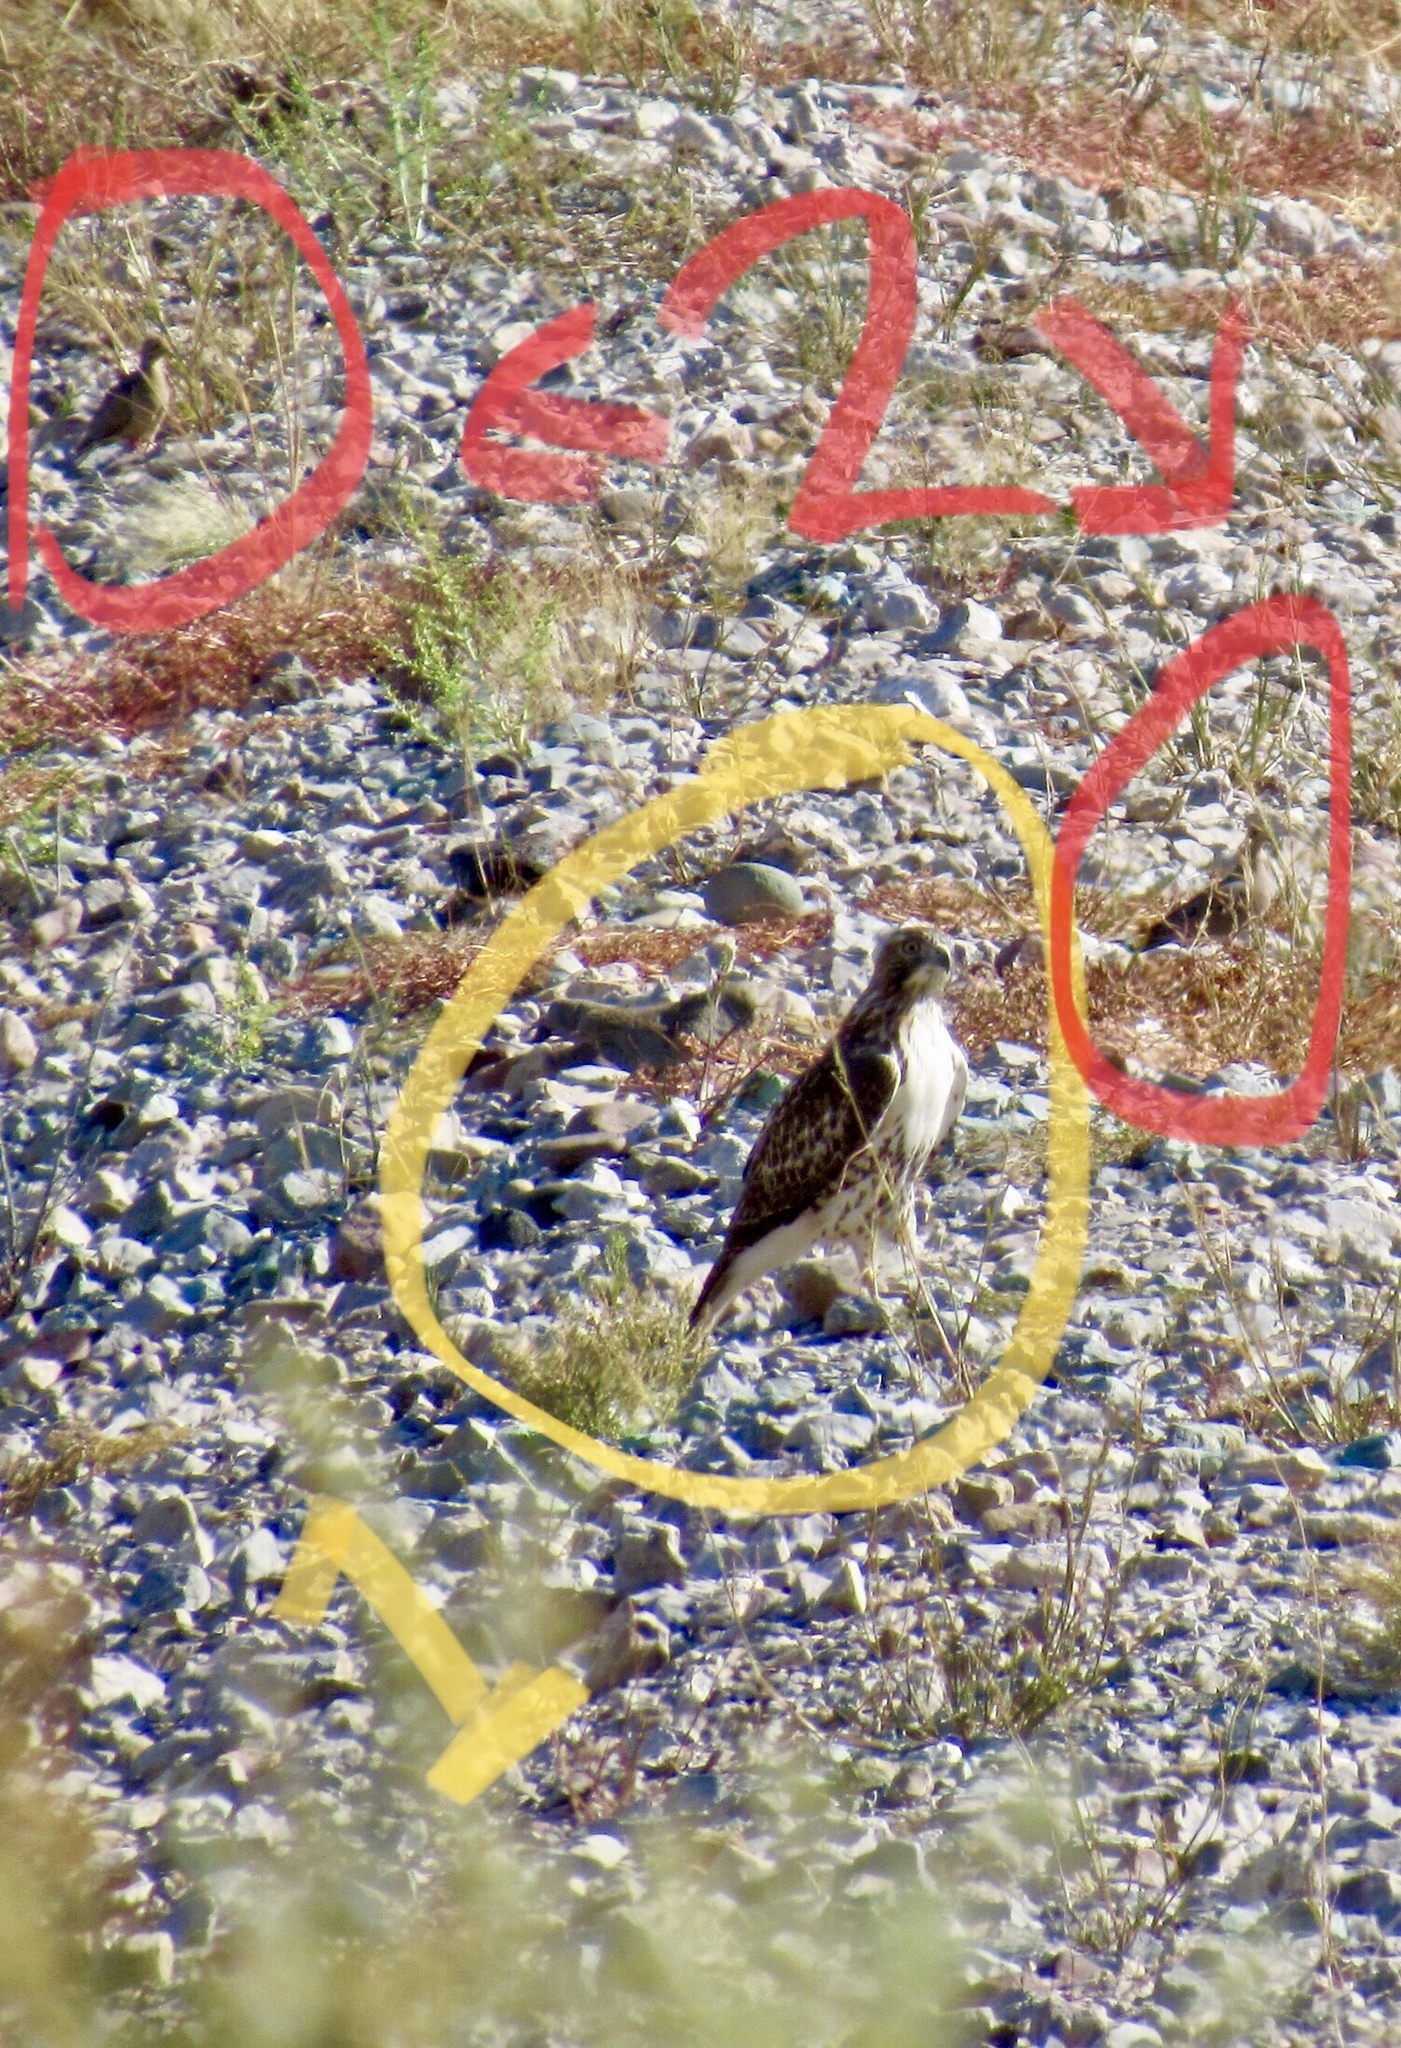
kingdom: Animalia
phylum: Chordata
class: Aves
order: Columbiformes
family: Columbidae
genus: Zenaida
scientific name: Zenaida macroura
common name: Mourning dove
